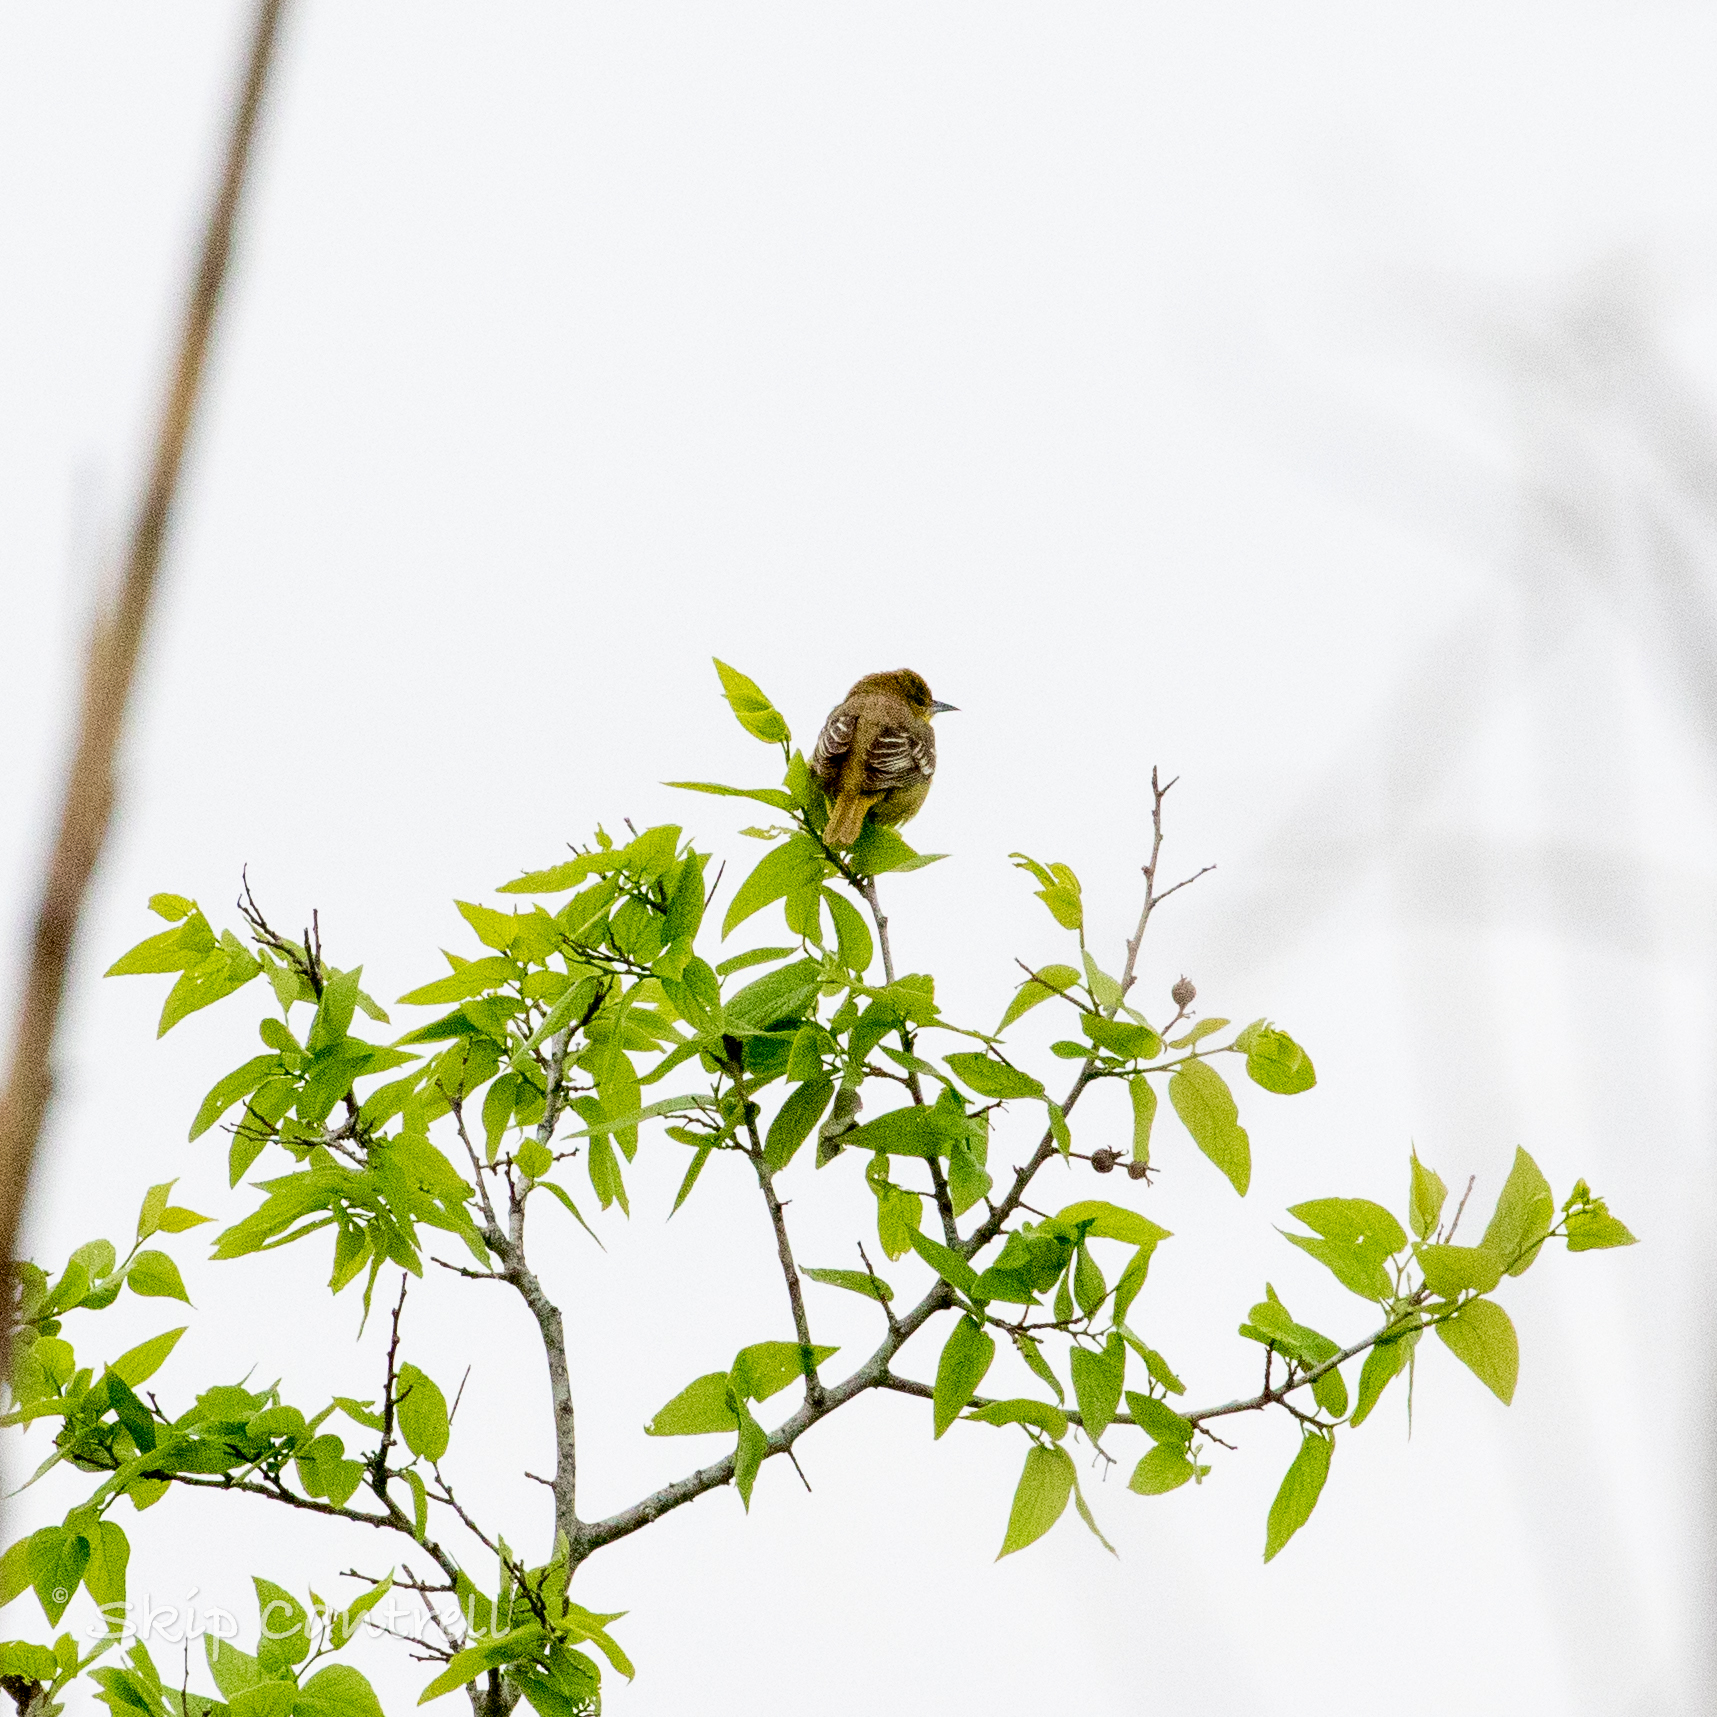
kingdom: Animalia
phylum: Chordata
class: Aves
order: Passeriformes
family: Icteridae
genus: Icterus
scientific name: Icterus spurius
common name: Orchard oriole
